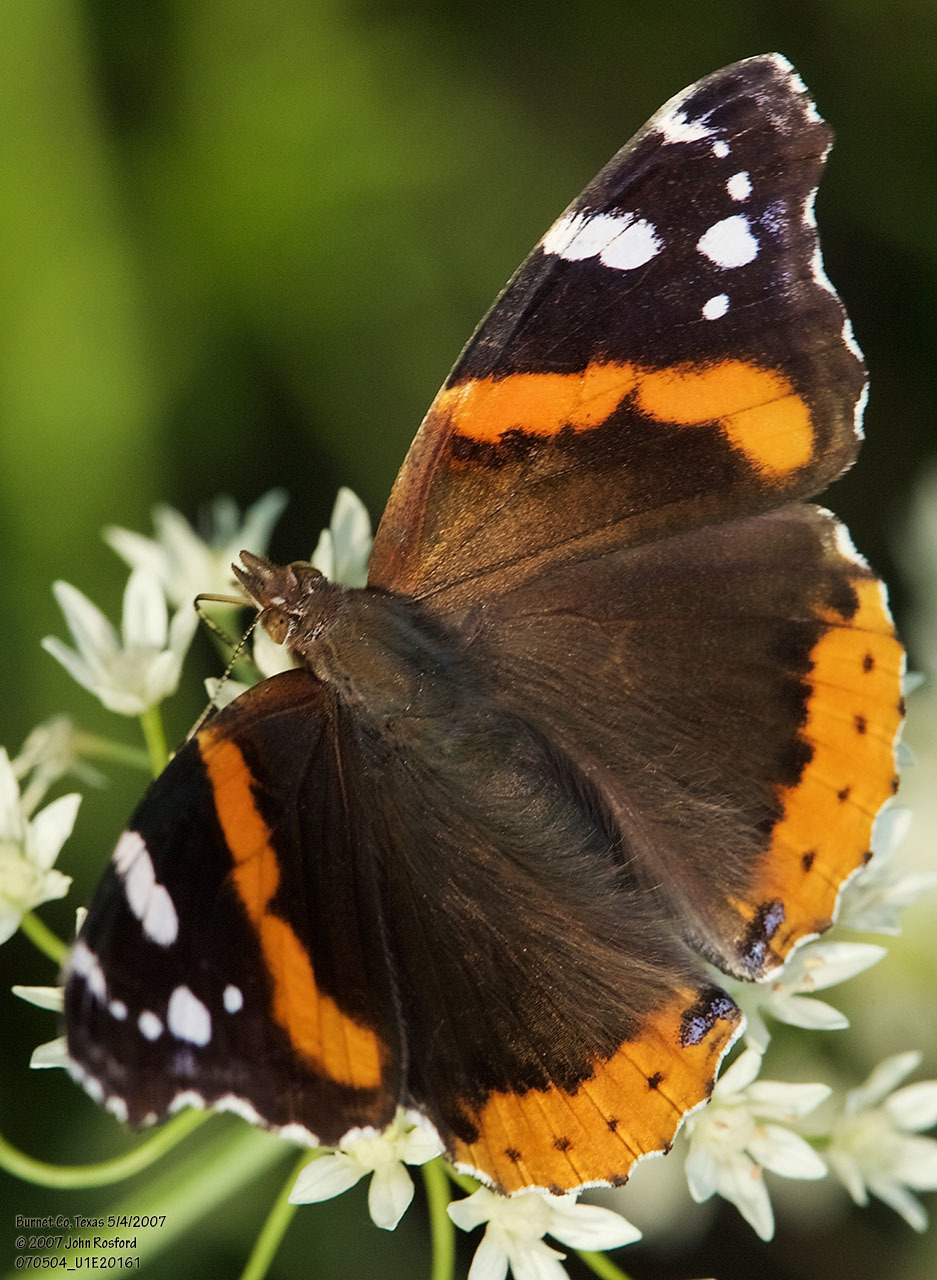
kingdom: Animalia
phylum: Arthropoda
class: Insecta
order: Lepidoptera
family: Nymphalidae
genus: Vanessa
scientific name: Vanessa atalanta
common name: Red admiral
